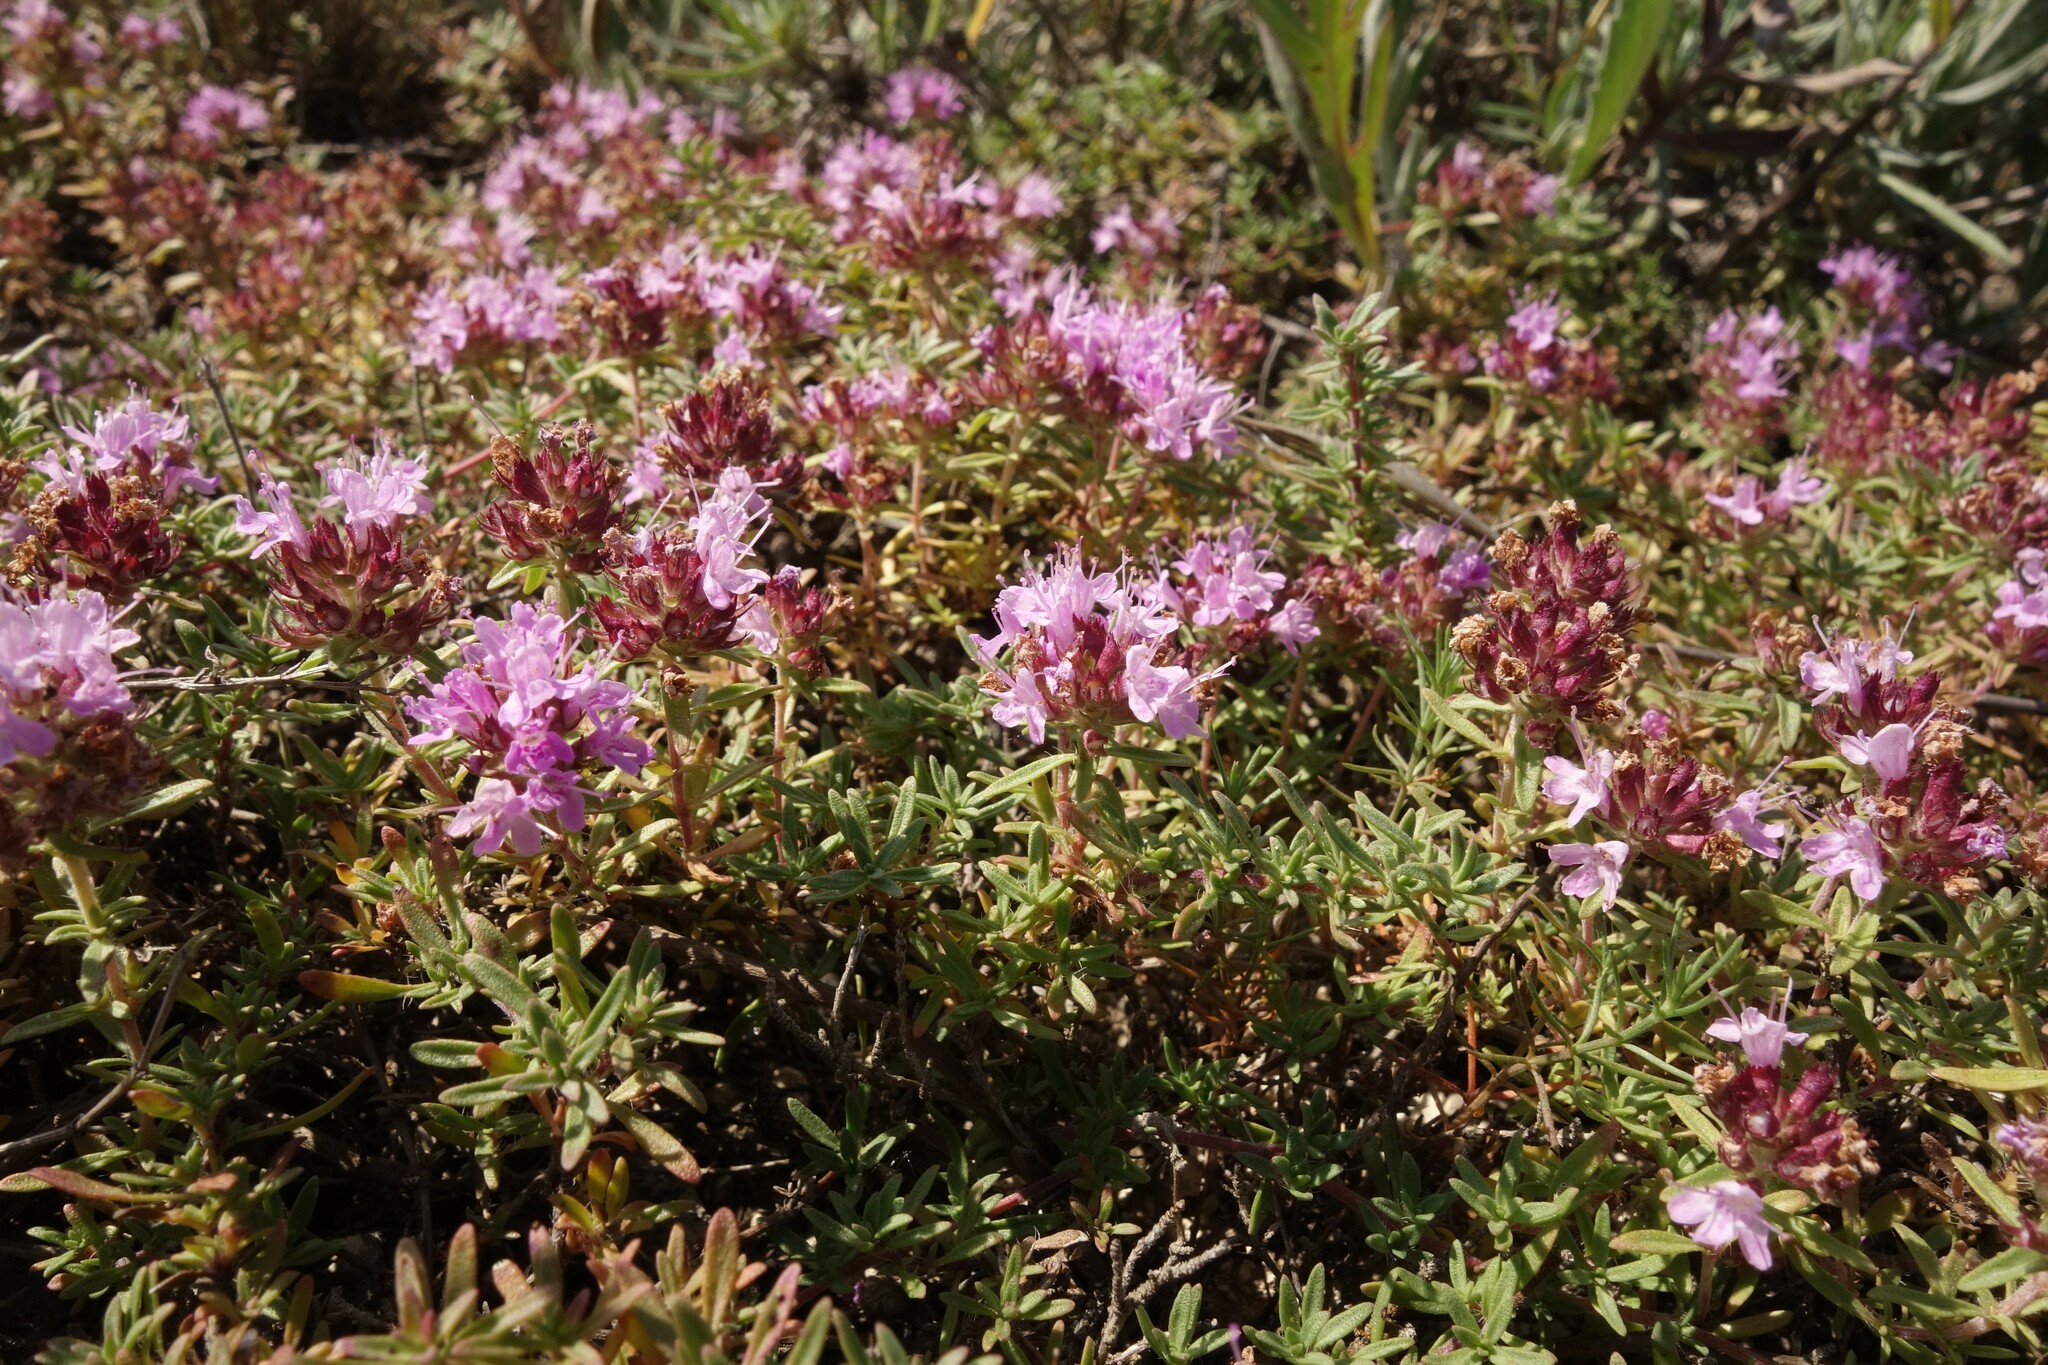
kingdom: Plantae
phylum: Tracheophyta
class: Magnoliopsida
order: Lamiales
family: Lamiaceae
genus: Thymus
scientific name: Thymus calcareus
